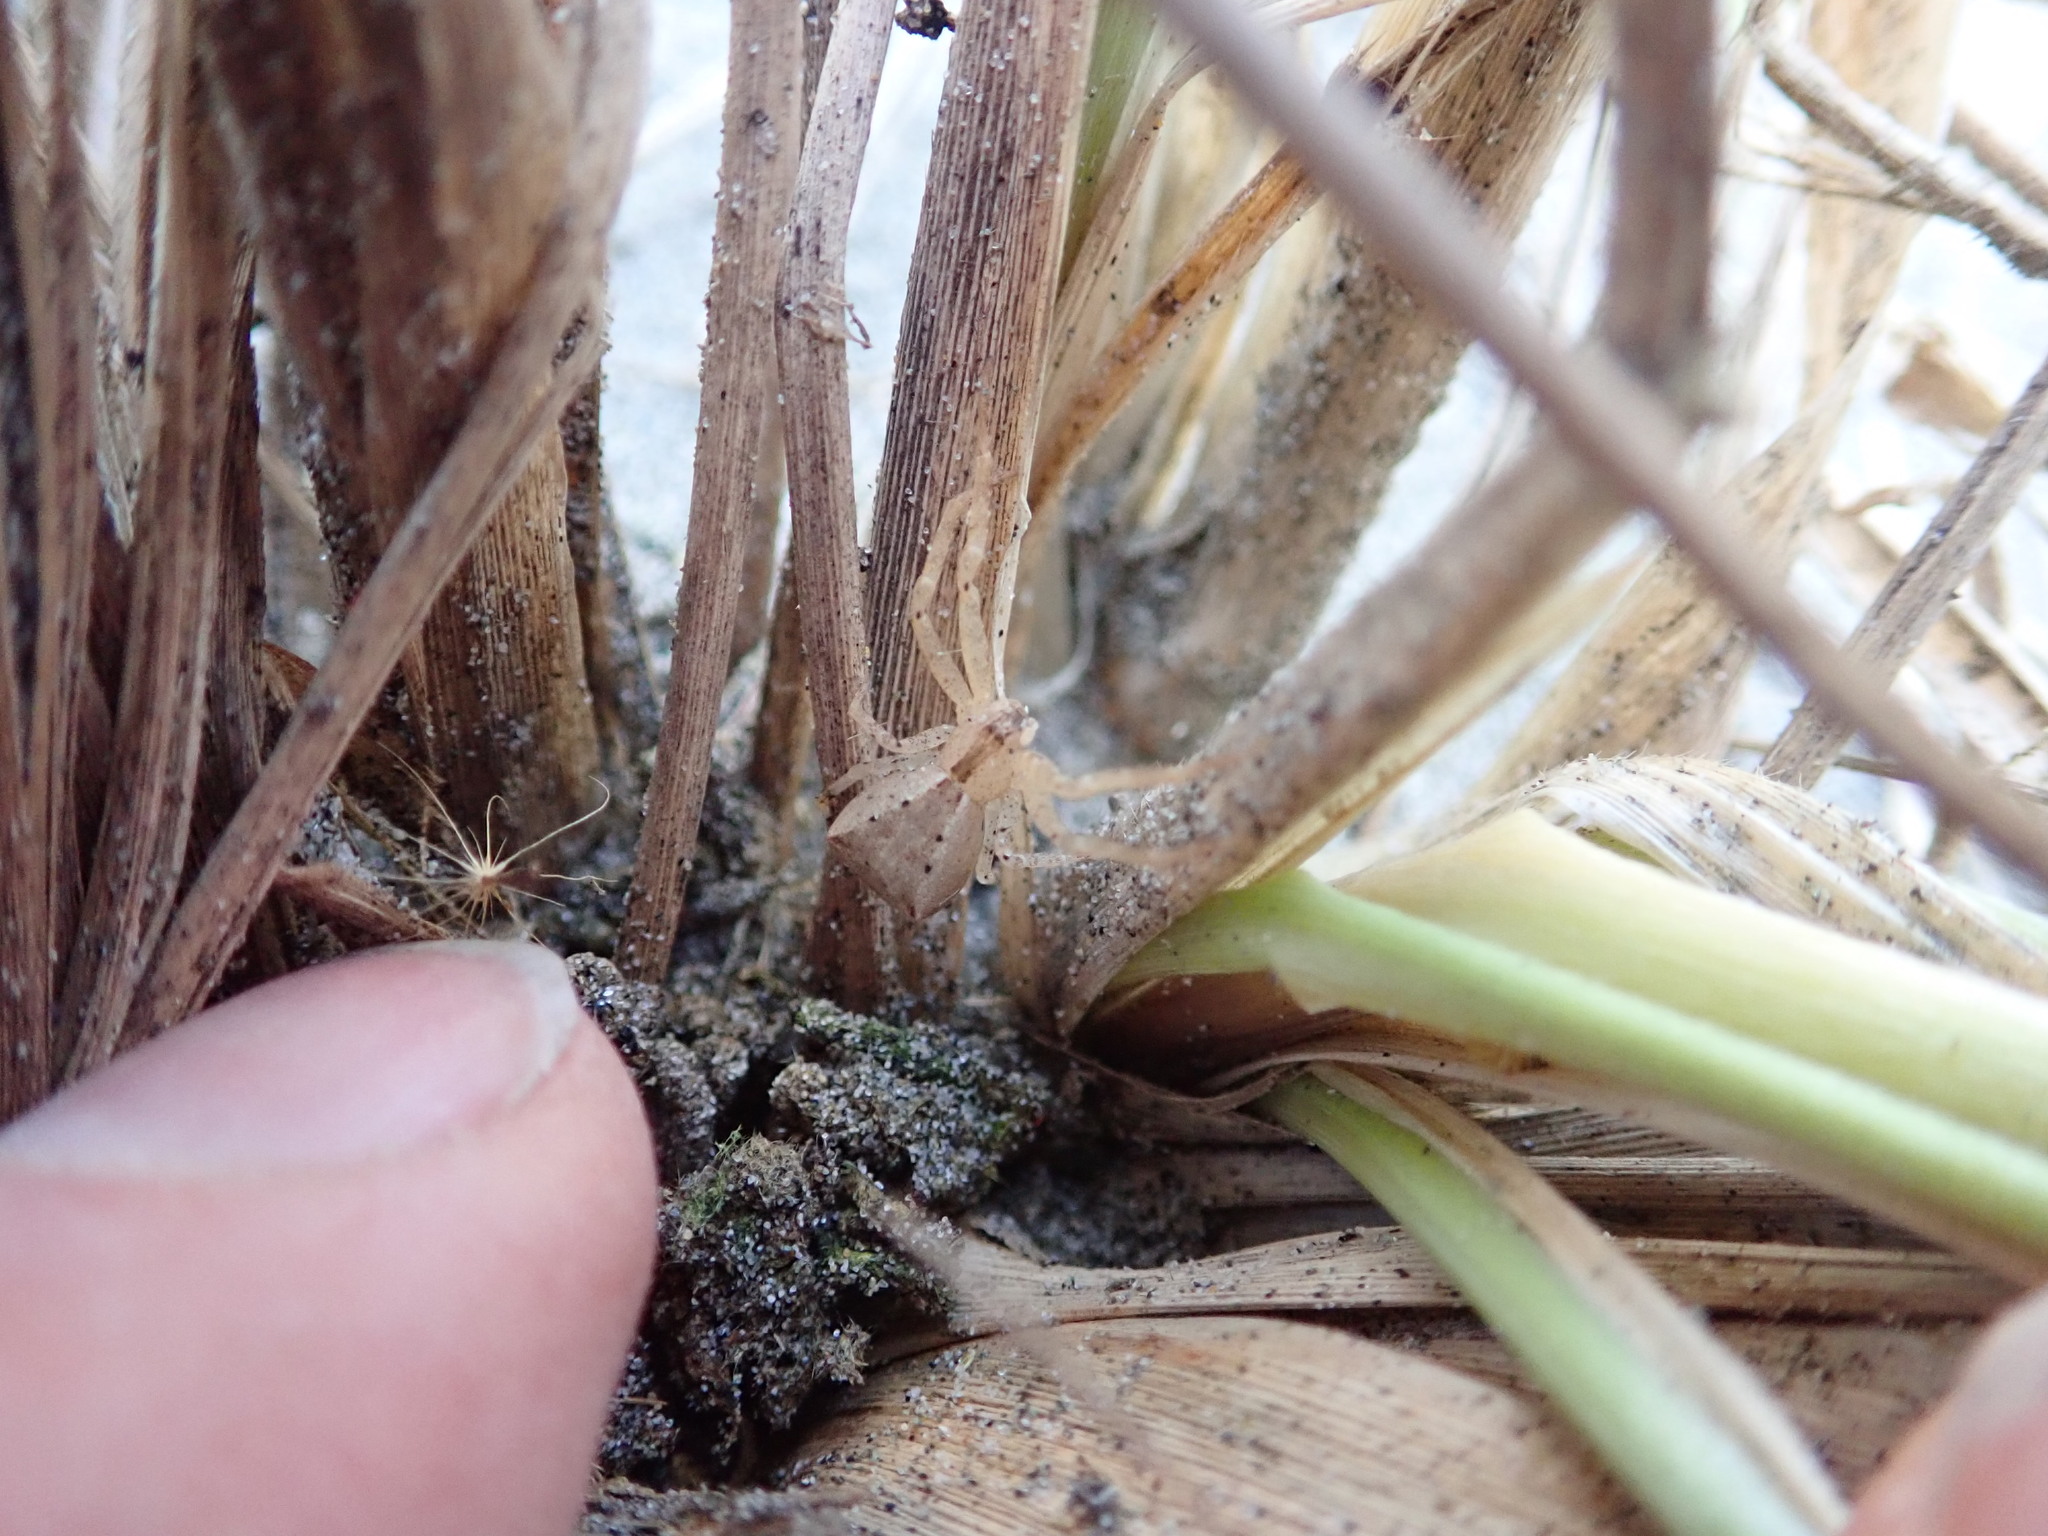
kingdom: Animalia
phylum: Arthropoda
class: Arachnida
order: Araneae
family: Thomisidae
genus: Sidymella
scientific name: Sidymella trapezia
